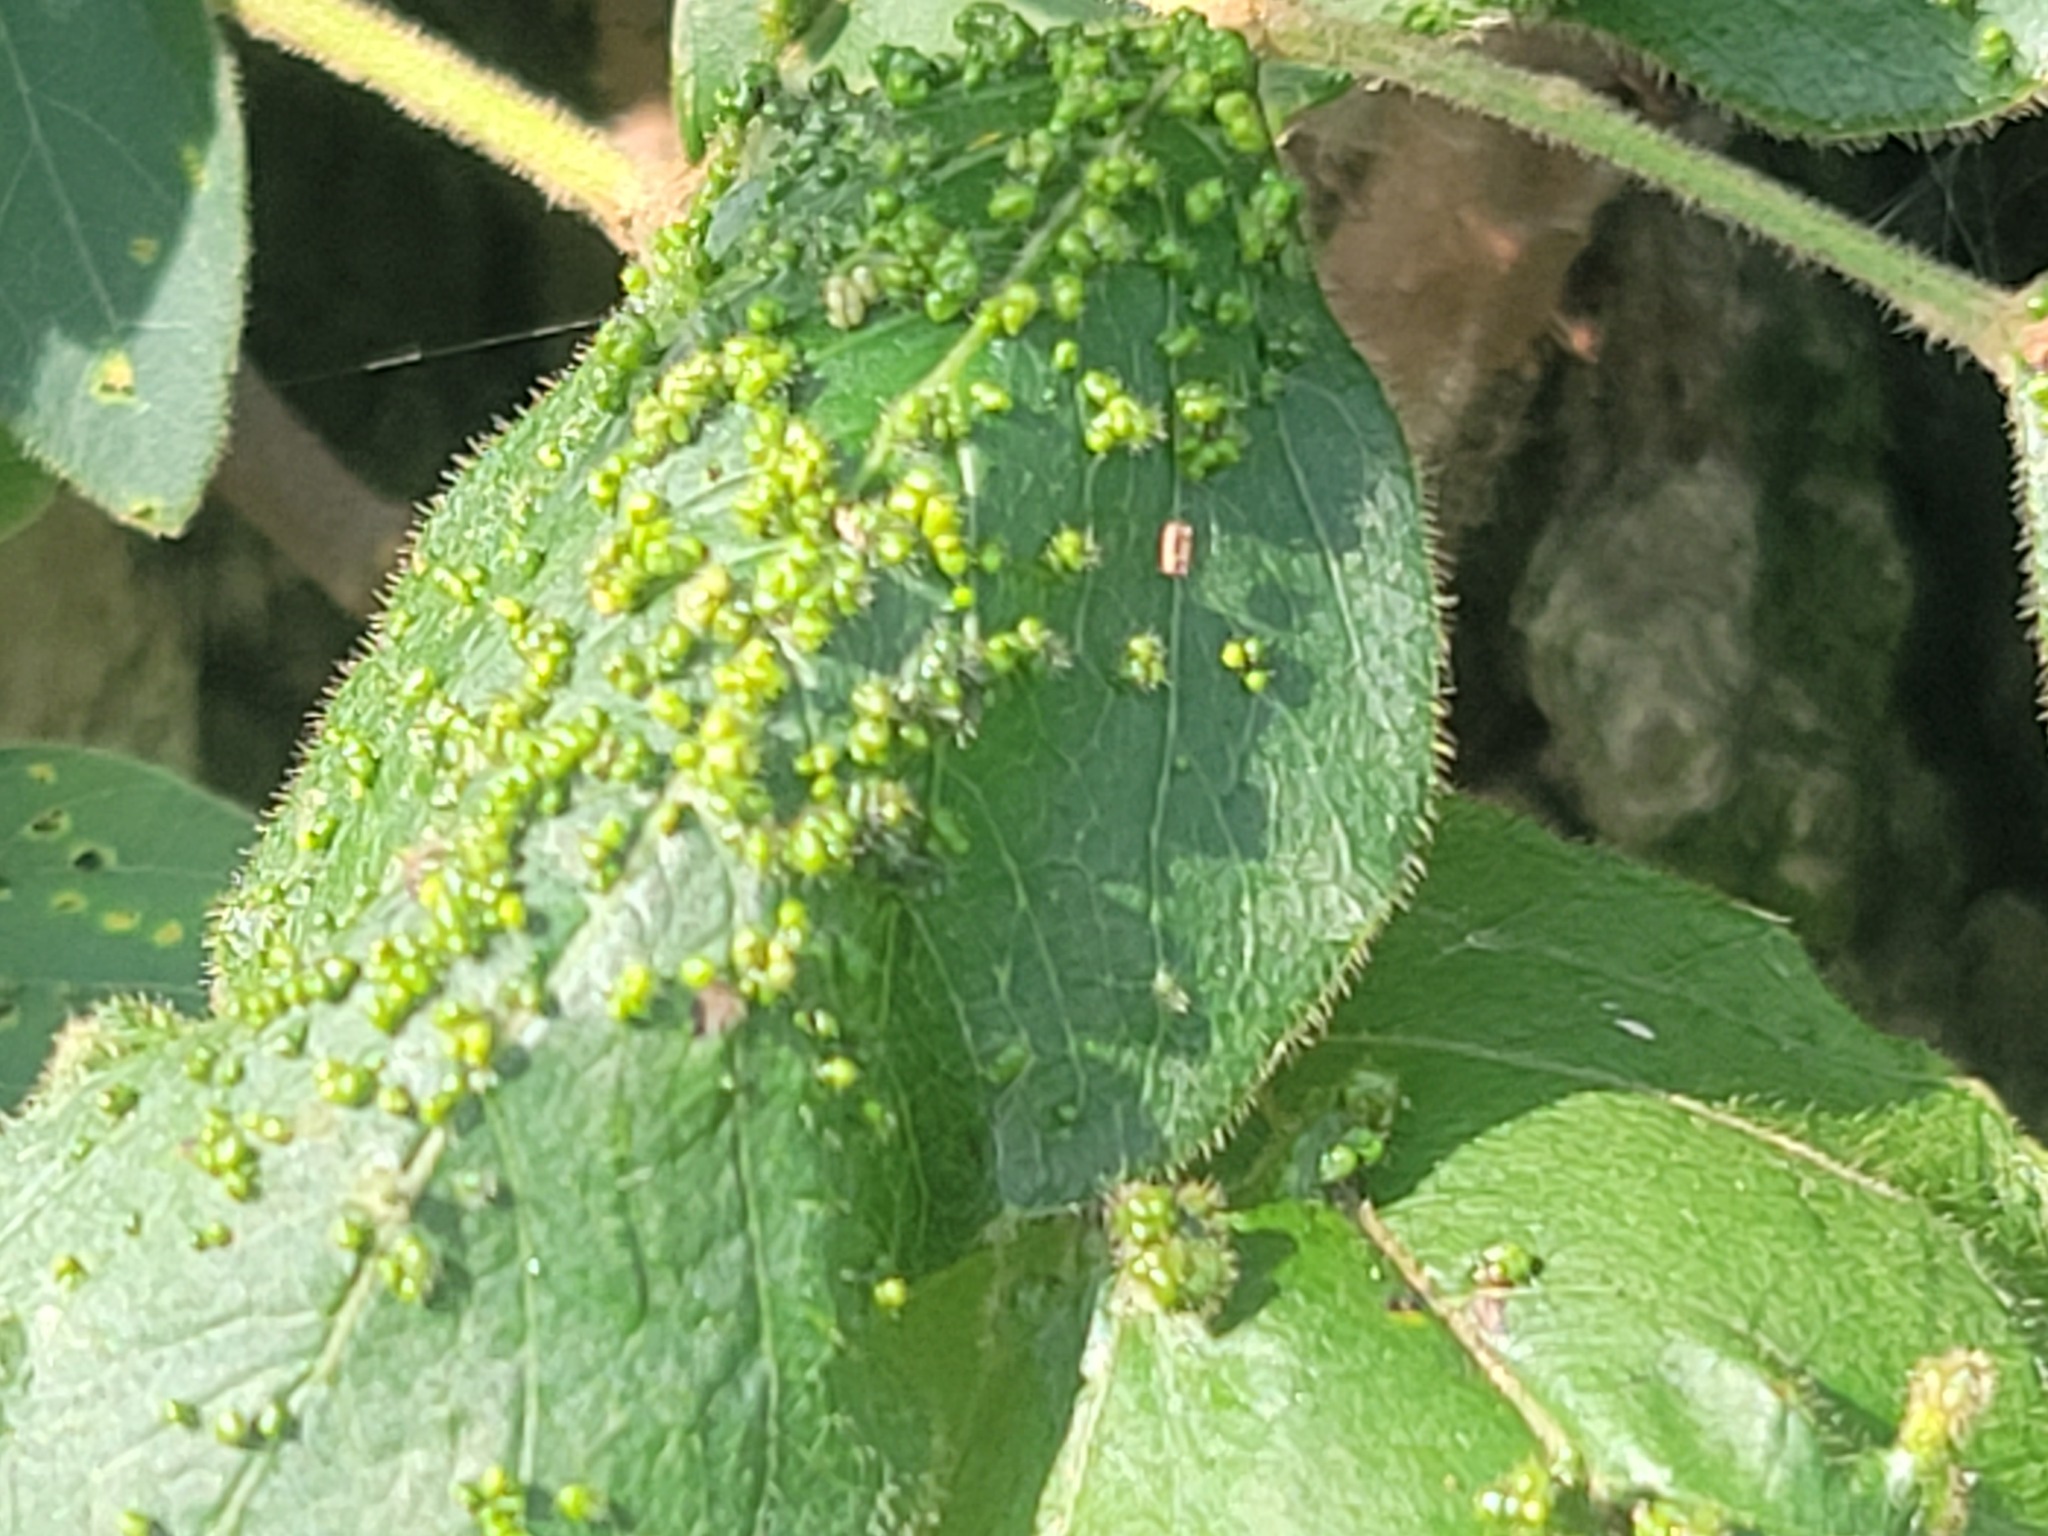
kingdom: Animalia
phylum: Arthropoda
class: Arachnida
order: Trombidiformes
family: Eriophyidae
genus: Aculops
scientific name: Aculops
